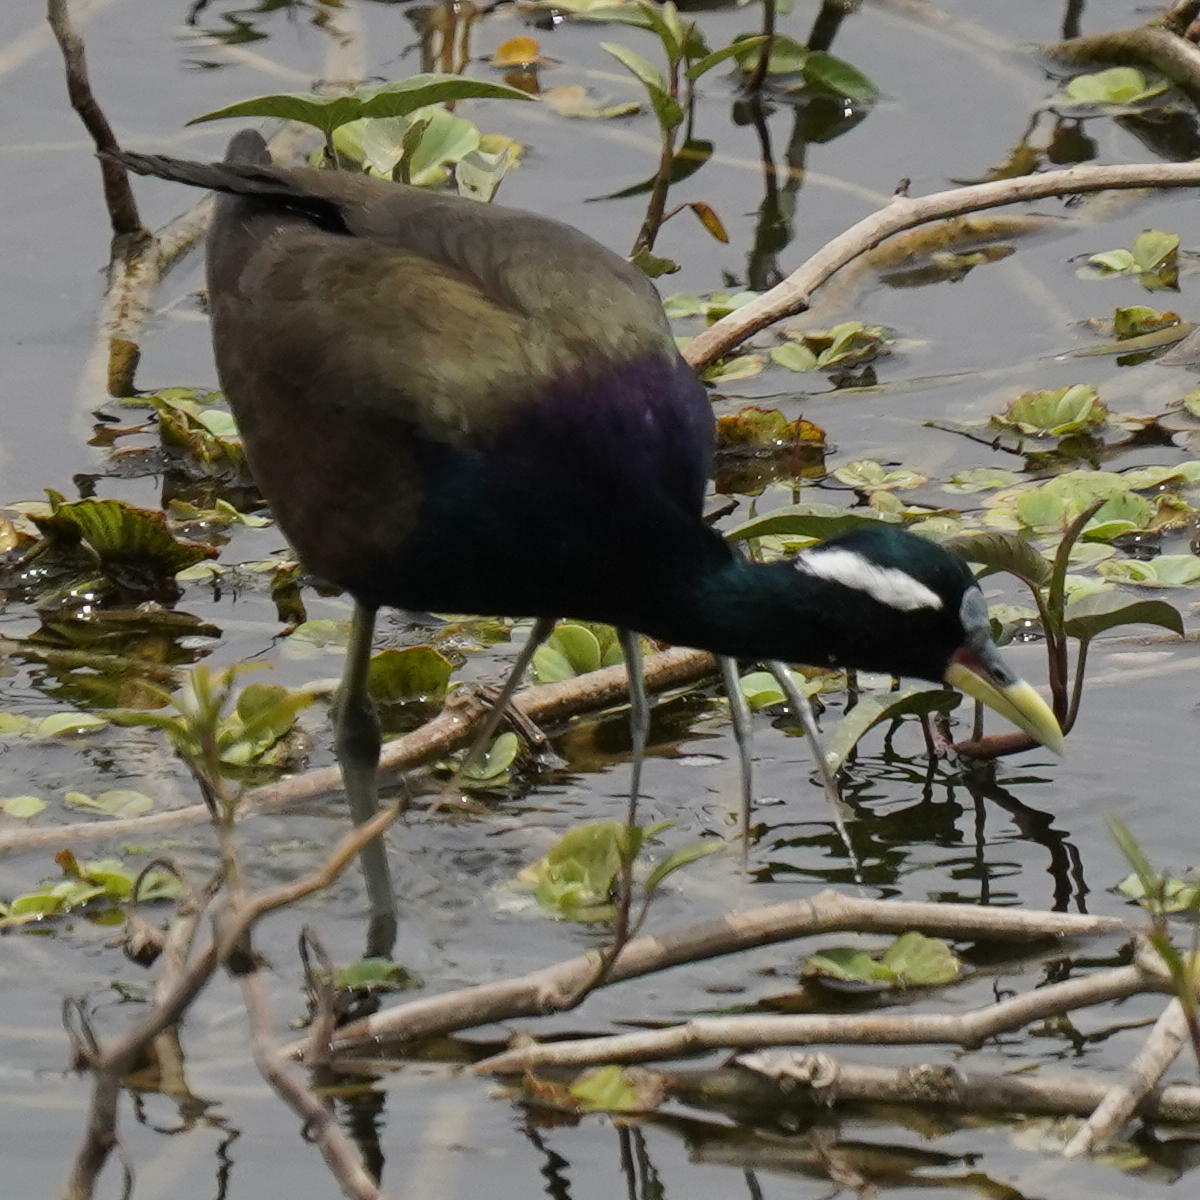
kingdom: Animalia
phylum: Chordata
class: Aves
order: Charadriiformes
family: Jacanidae
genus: Metopidius
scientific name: Metopidius indicus
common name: Bronze-winged jacana
